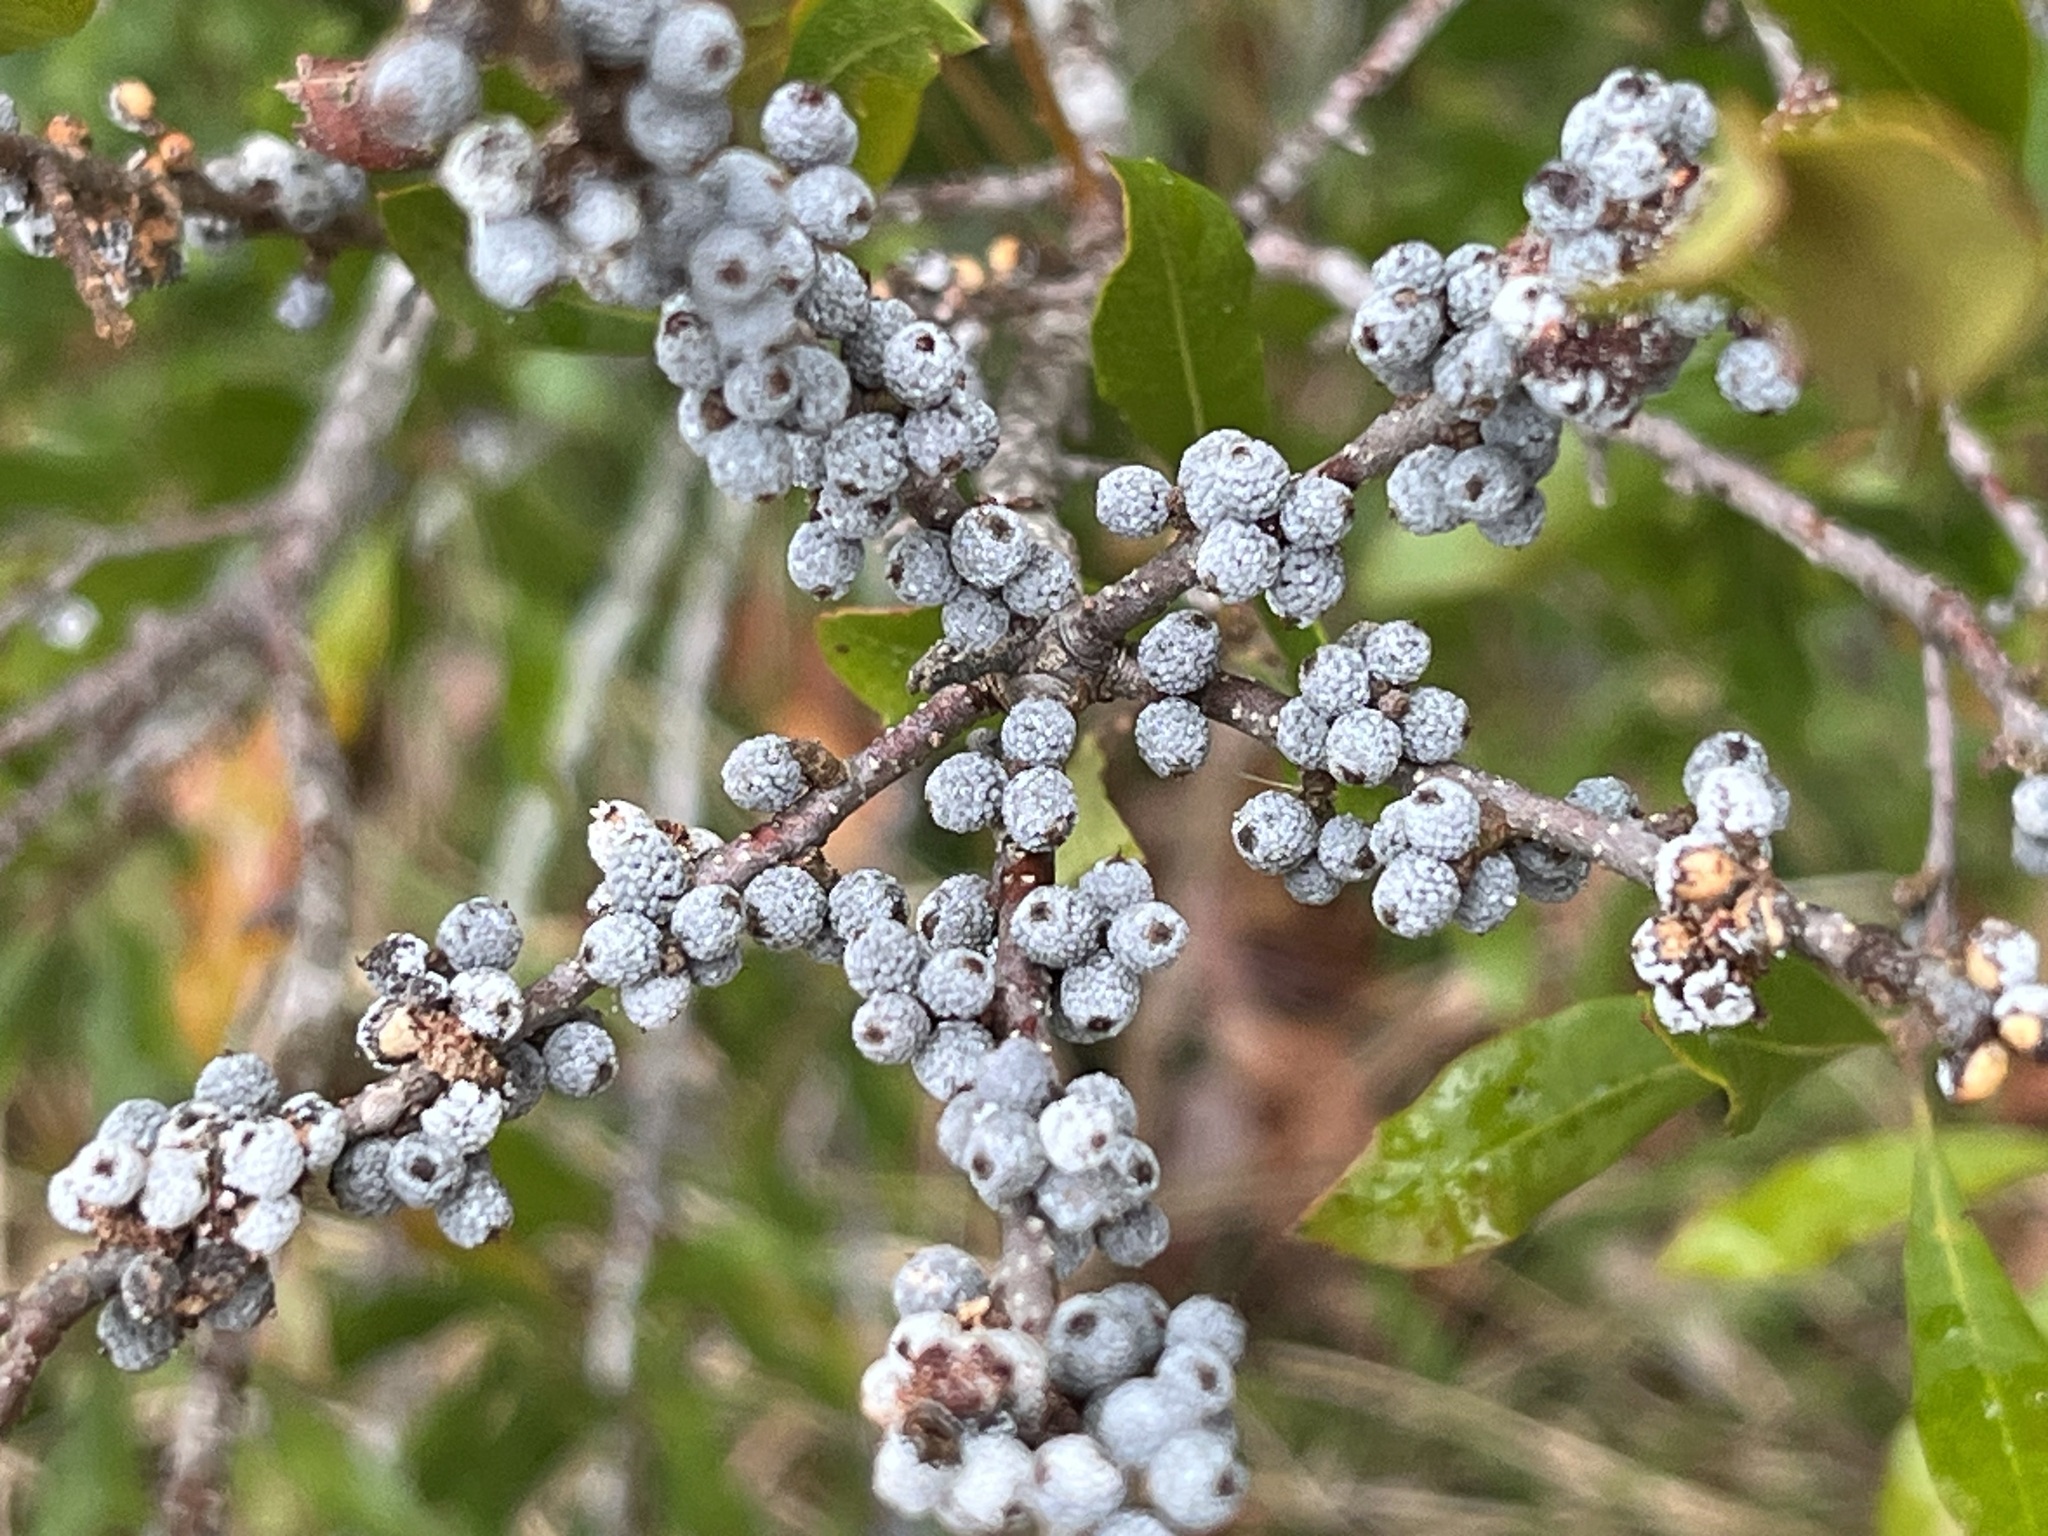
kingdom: Plantae
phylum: Tracheophyta
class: Magnoliopsida
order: Fagales
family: Myricaceae
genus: Morella
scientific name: Morella cerifera
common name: Wax myrtle
